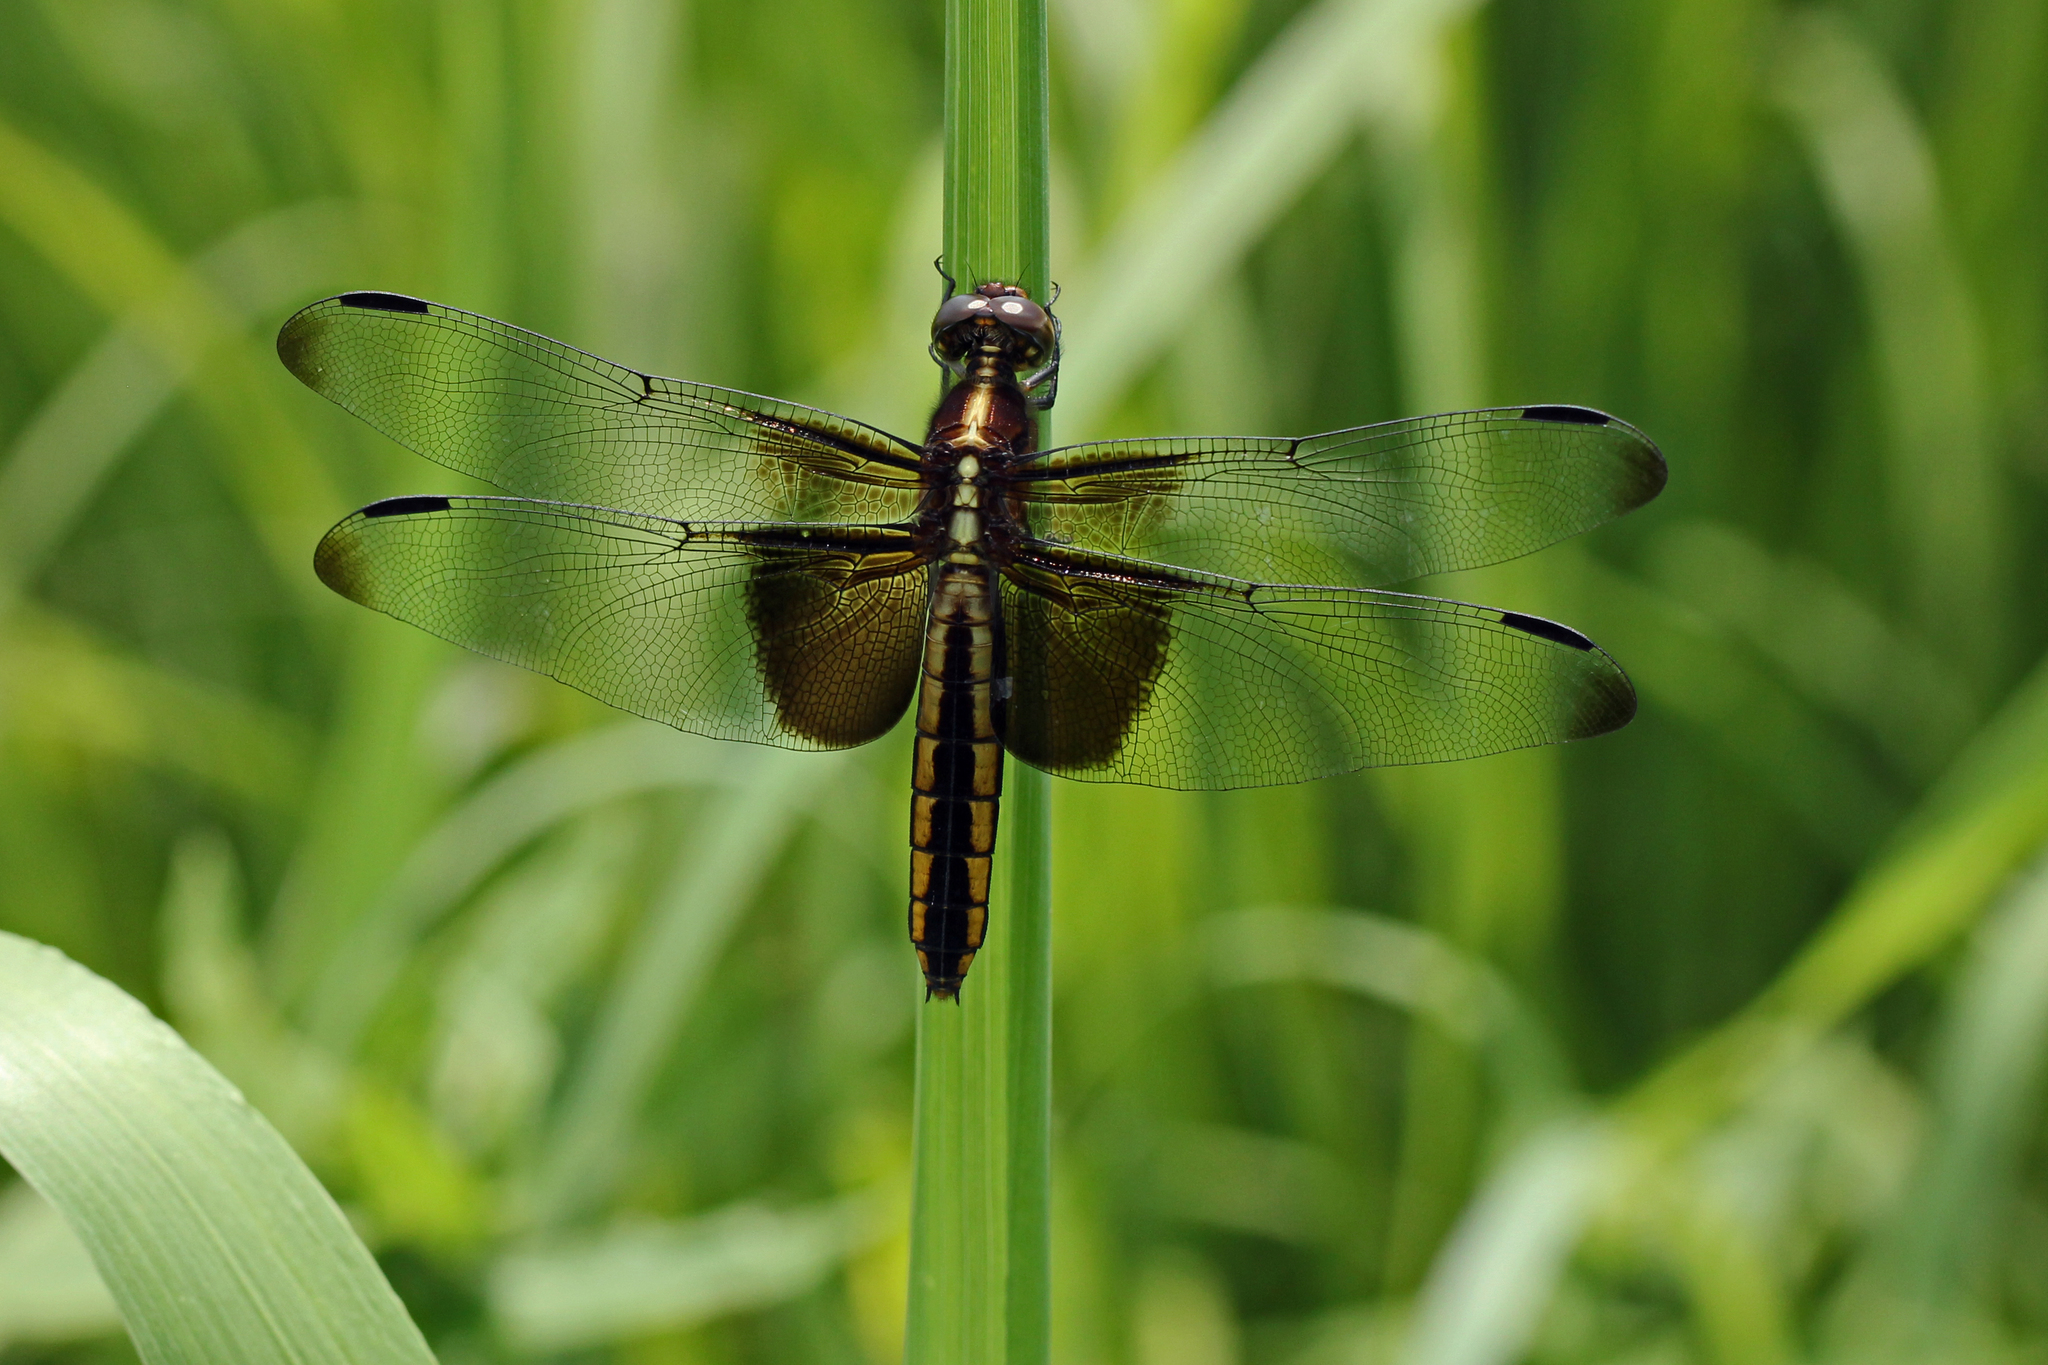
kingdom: Animalia
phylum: Arthropoda
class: Insecta
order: Odonata
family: Libellulidae
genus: Libellula
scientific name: Libellula luctuosa
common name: Widow skimmer
